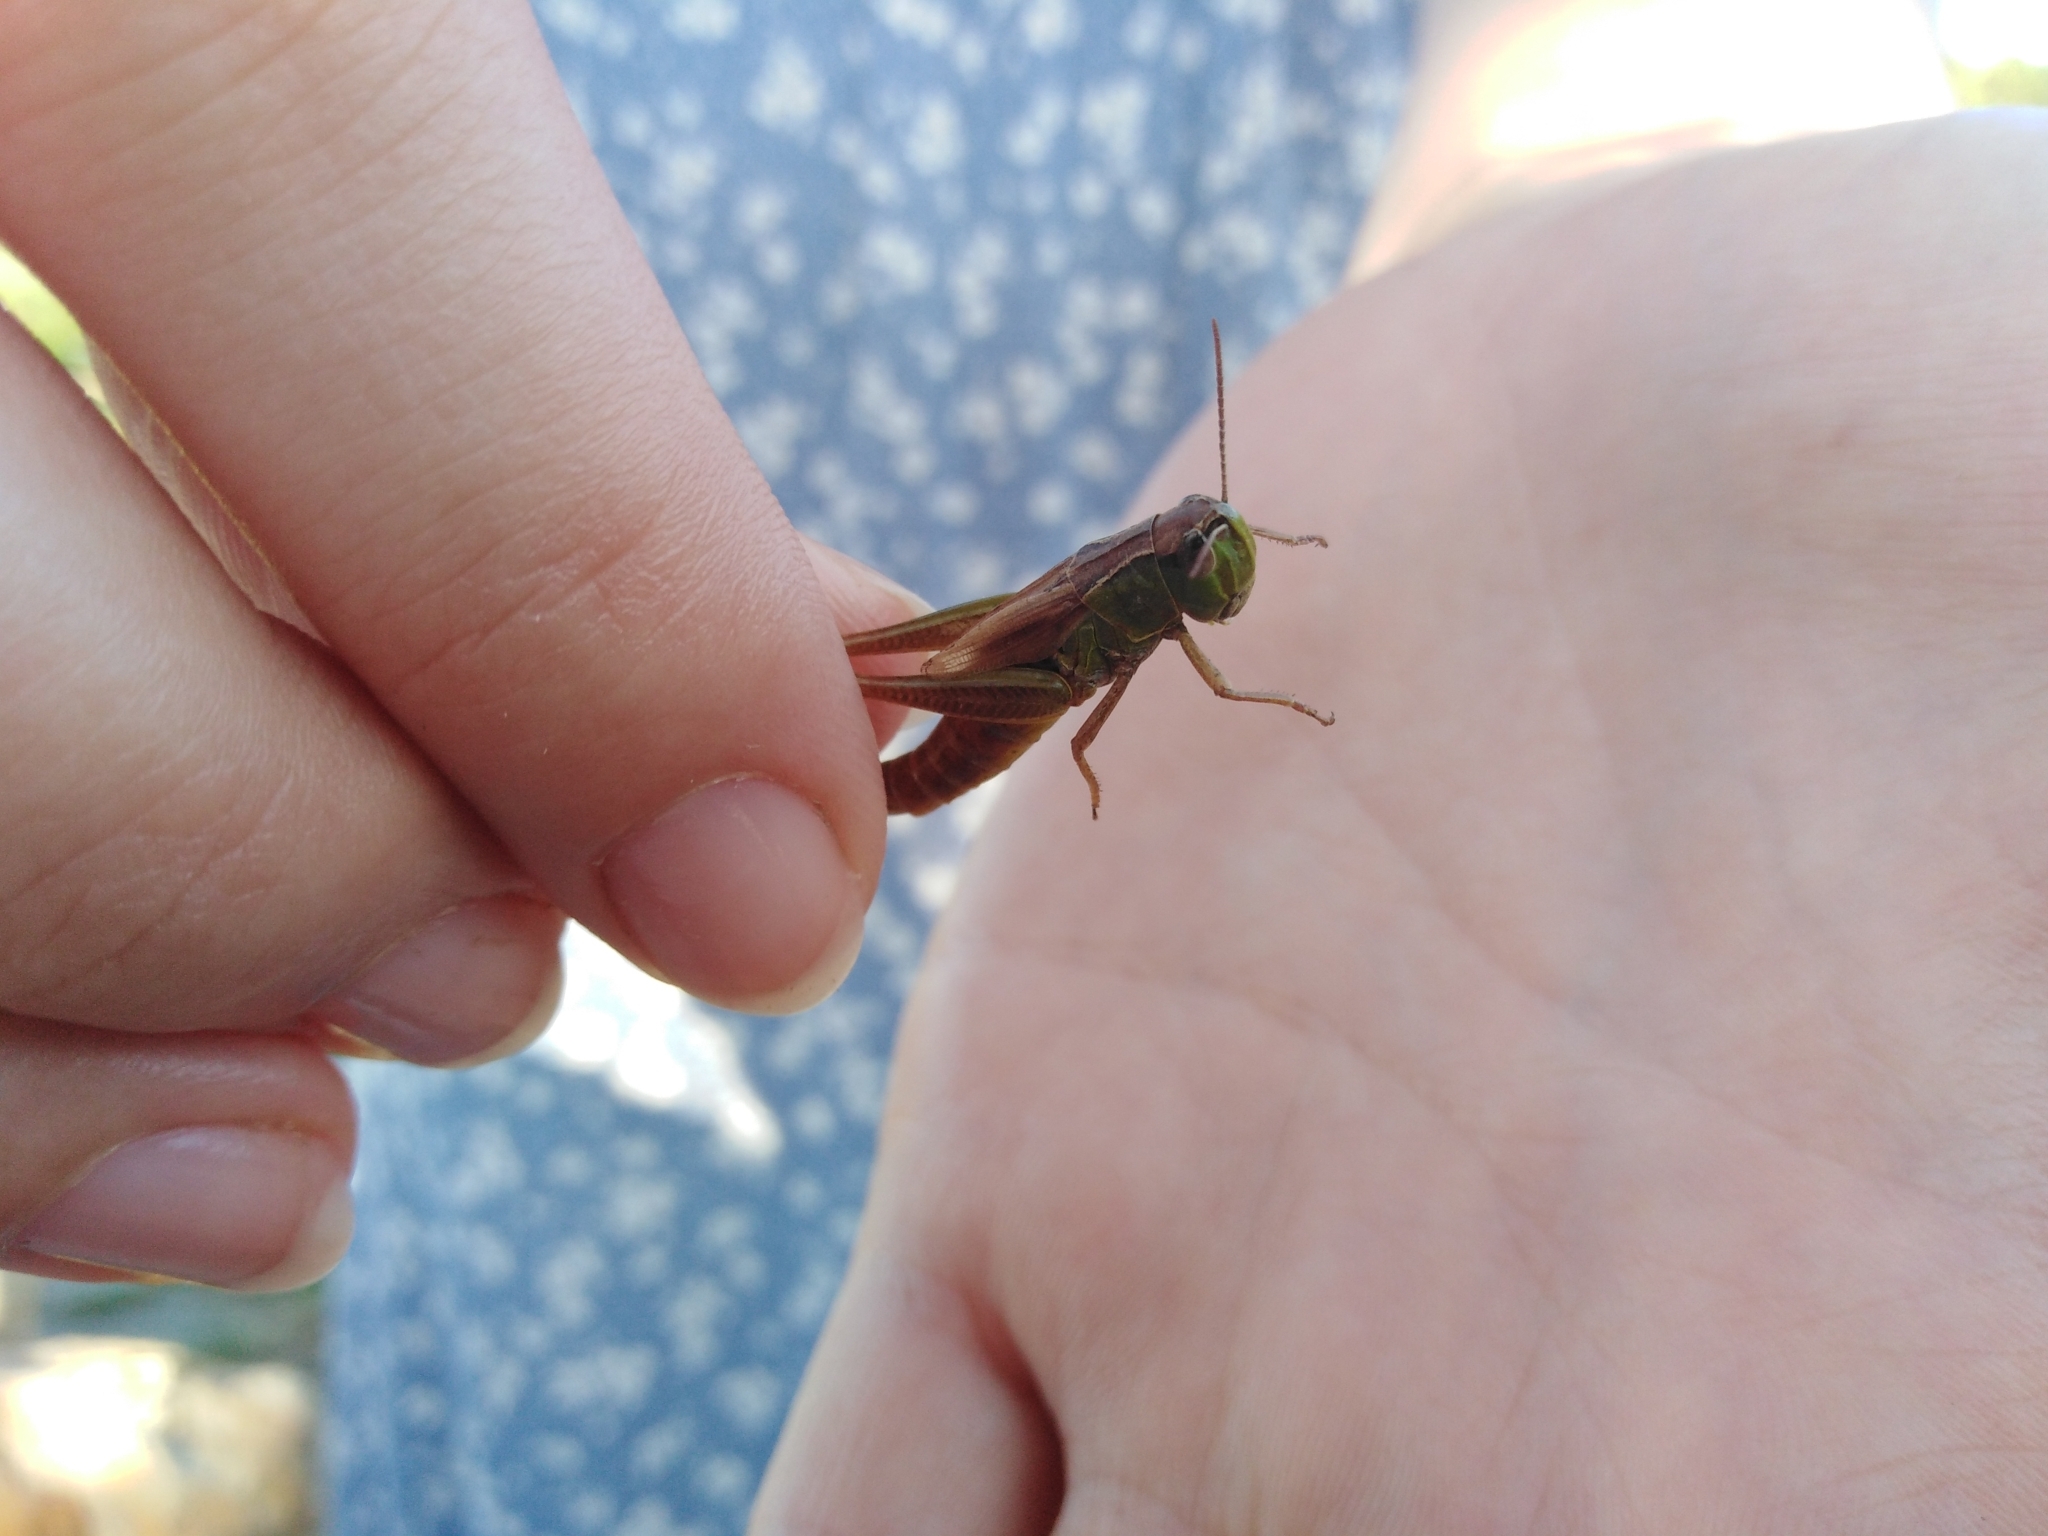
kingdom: Animalia
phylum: Arthropoda
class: Insecta
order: Orthoptera
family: Acrididae
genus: Pseudochorthippus
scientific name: Pseudochorthippus parallelus
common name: Meadow grasshopper
